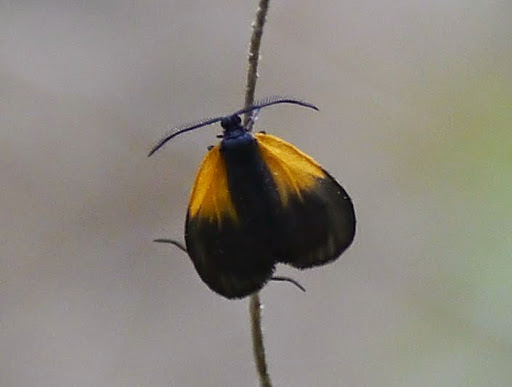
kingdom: Animalia
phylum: Arthropoda
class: Insecta
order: Lepidoptera
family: Zygaenidae
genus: Malthaca
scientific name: Malthaca dimidiata
